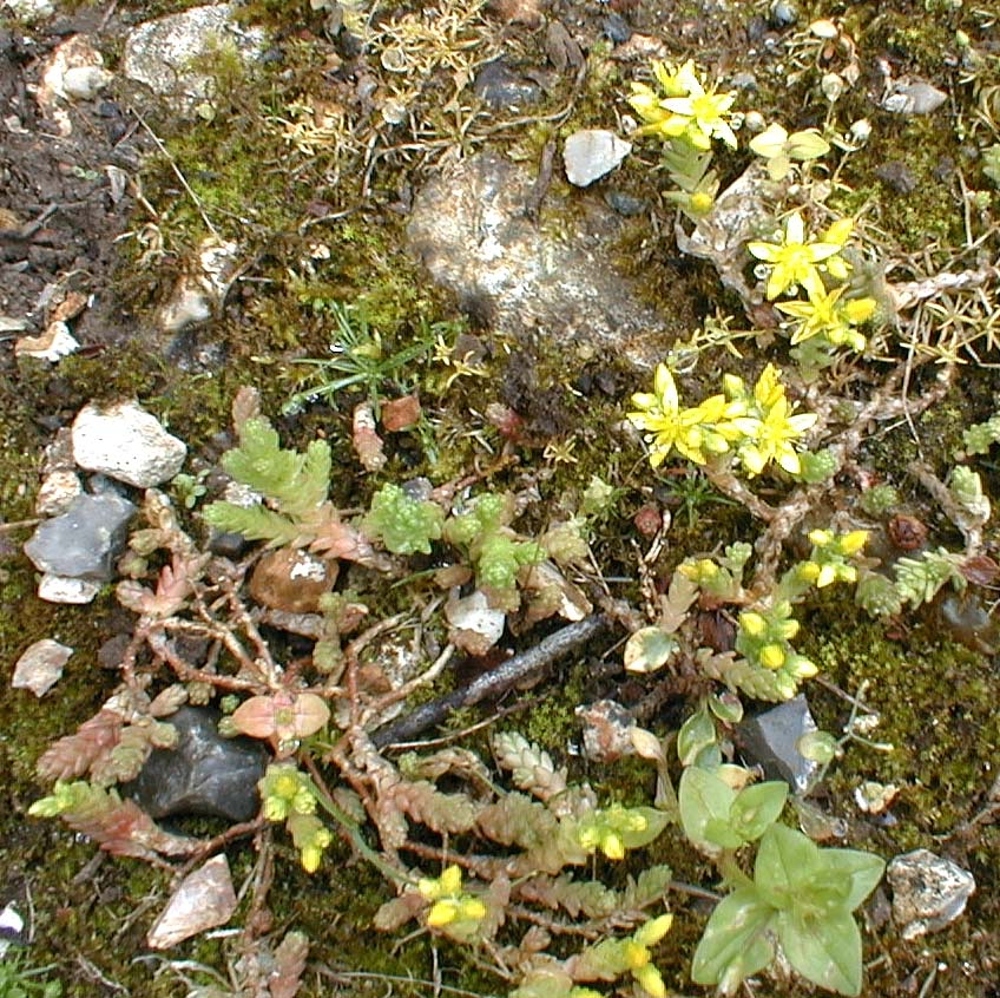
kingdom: Plantae
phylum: Tracheophyta
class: Magnoliopsida
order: Saxifragales
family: Crassulaceae
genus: Sedum
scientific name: Sedum acre
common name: Biting stonecrop
